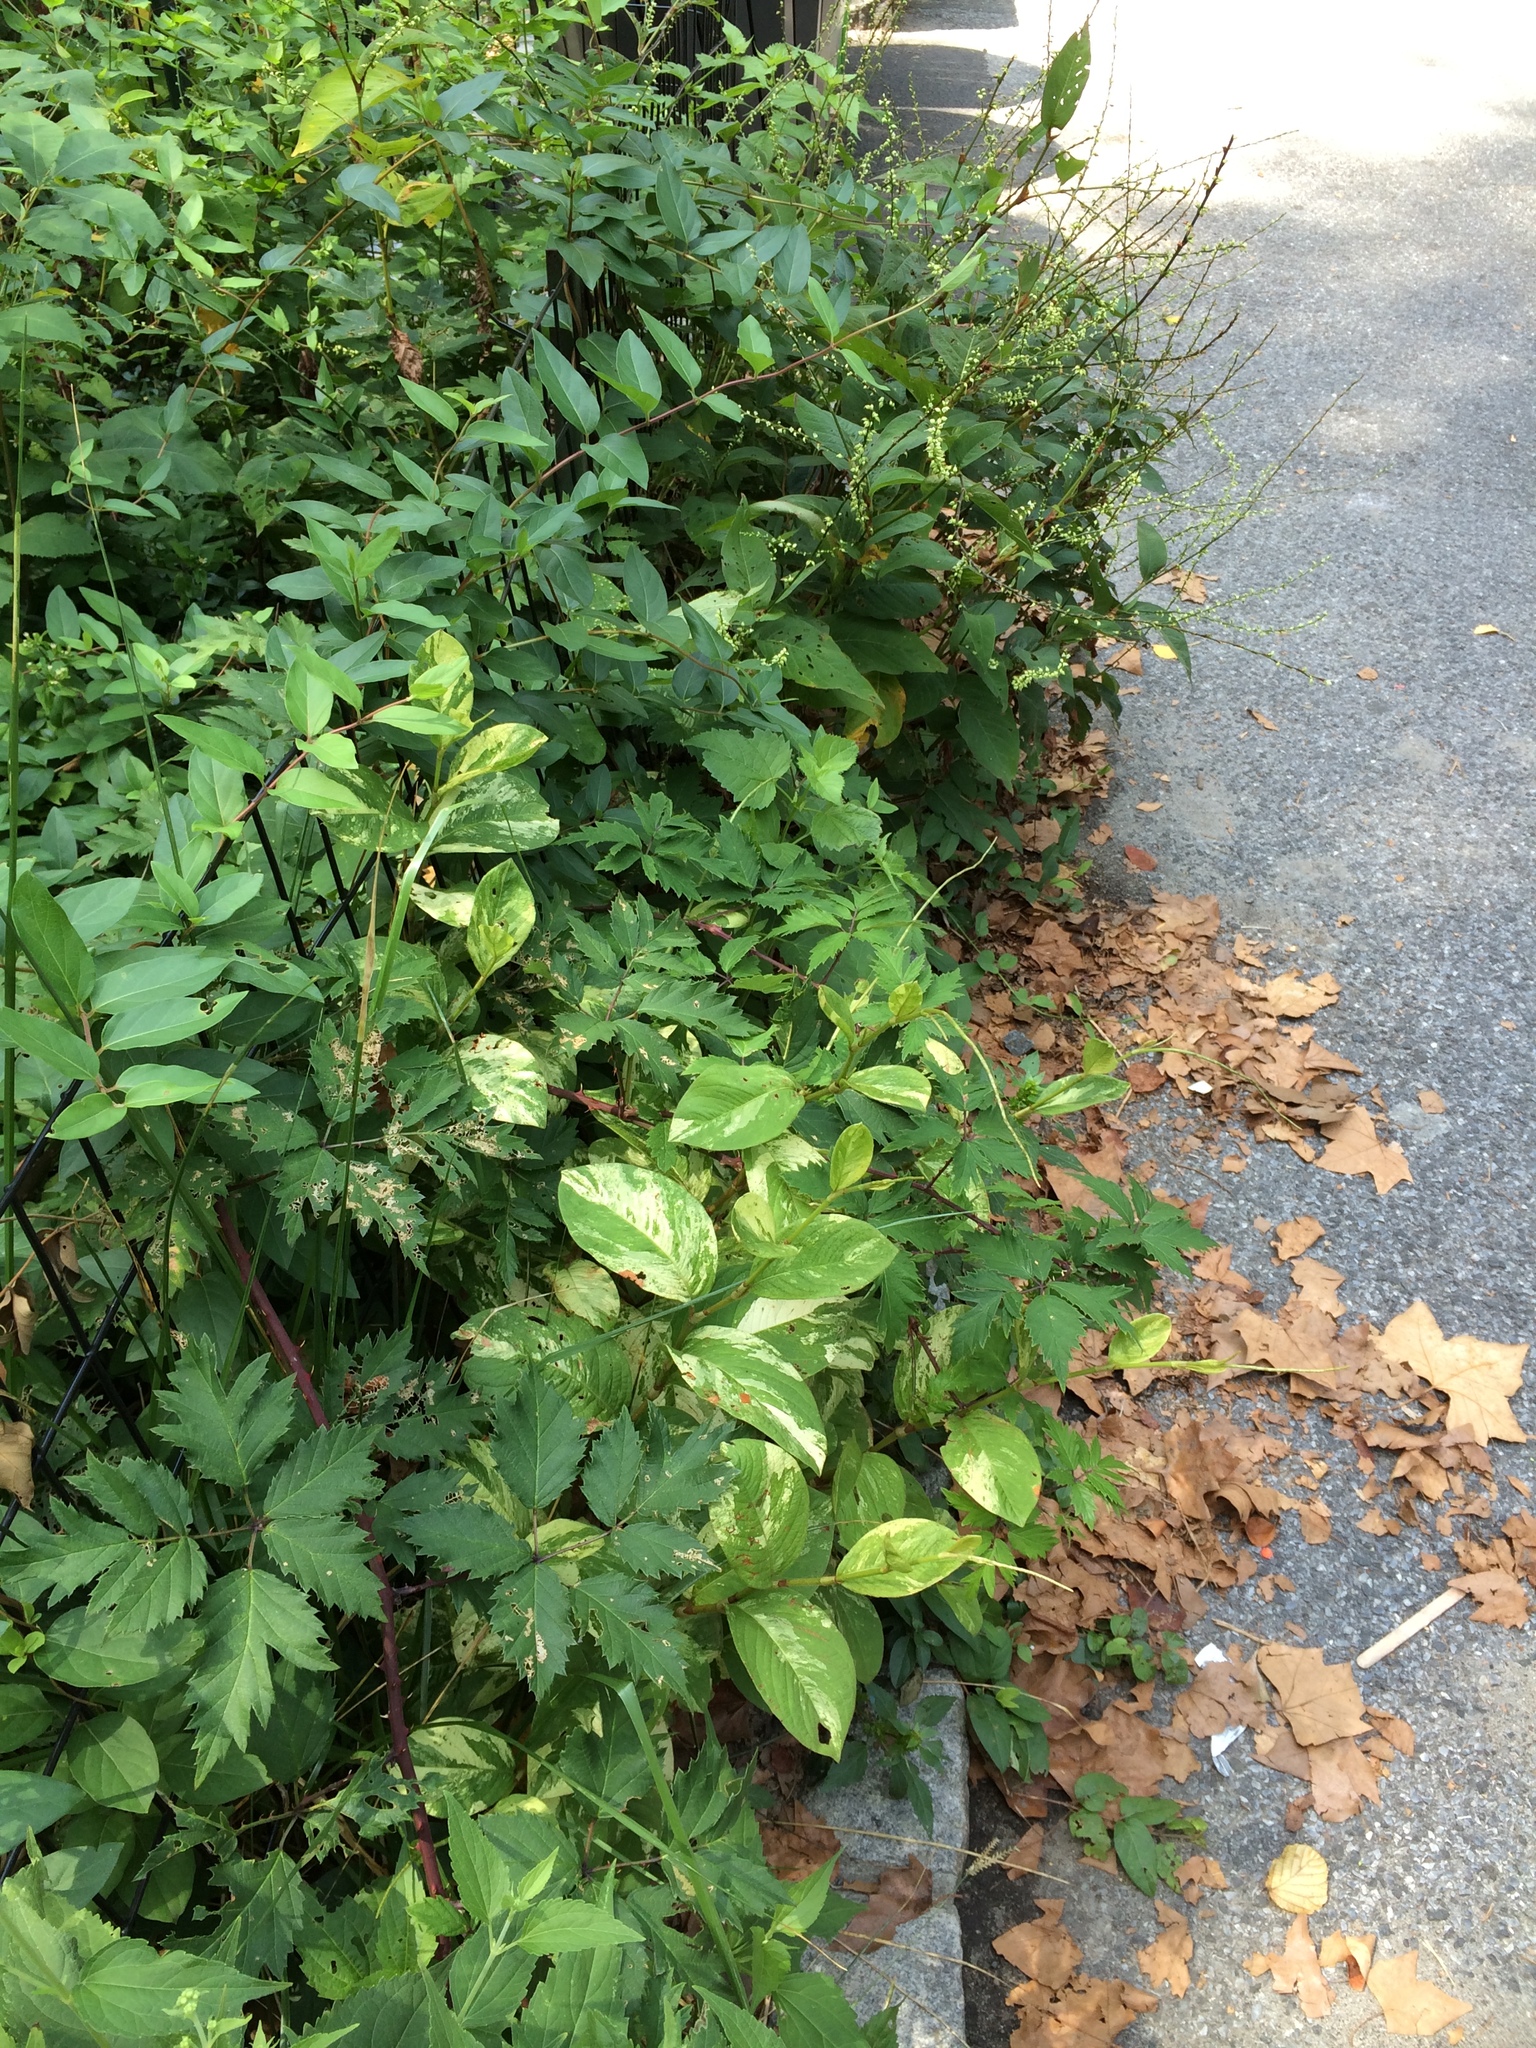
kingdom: Plantae
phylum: Tracheophyta
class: Magnoliopsida
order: Caryophyllales
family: Polygonaceae
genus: Persicaria
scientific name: Persicaria filiformis
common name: Asian jumpseed
